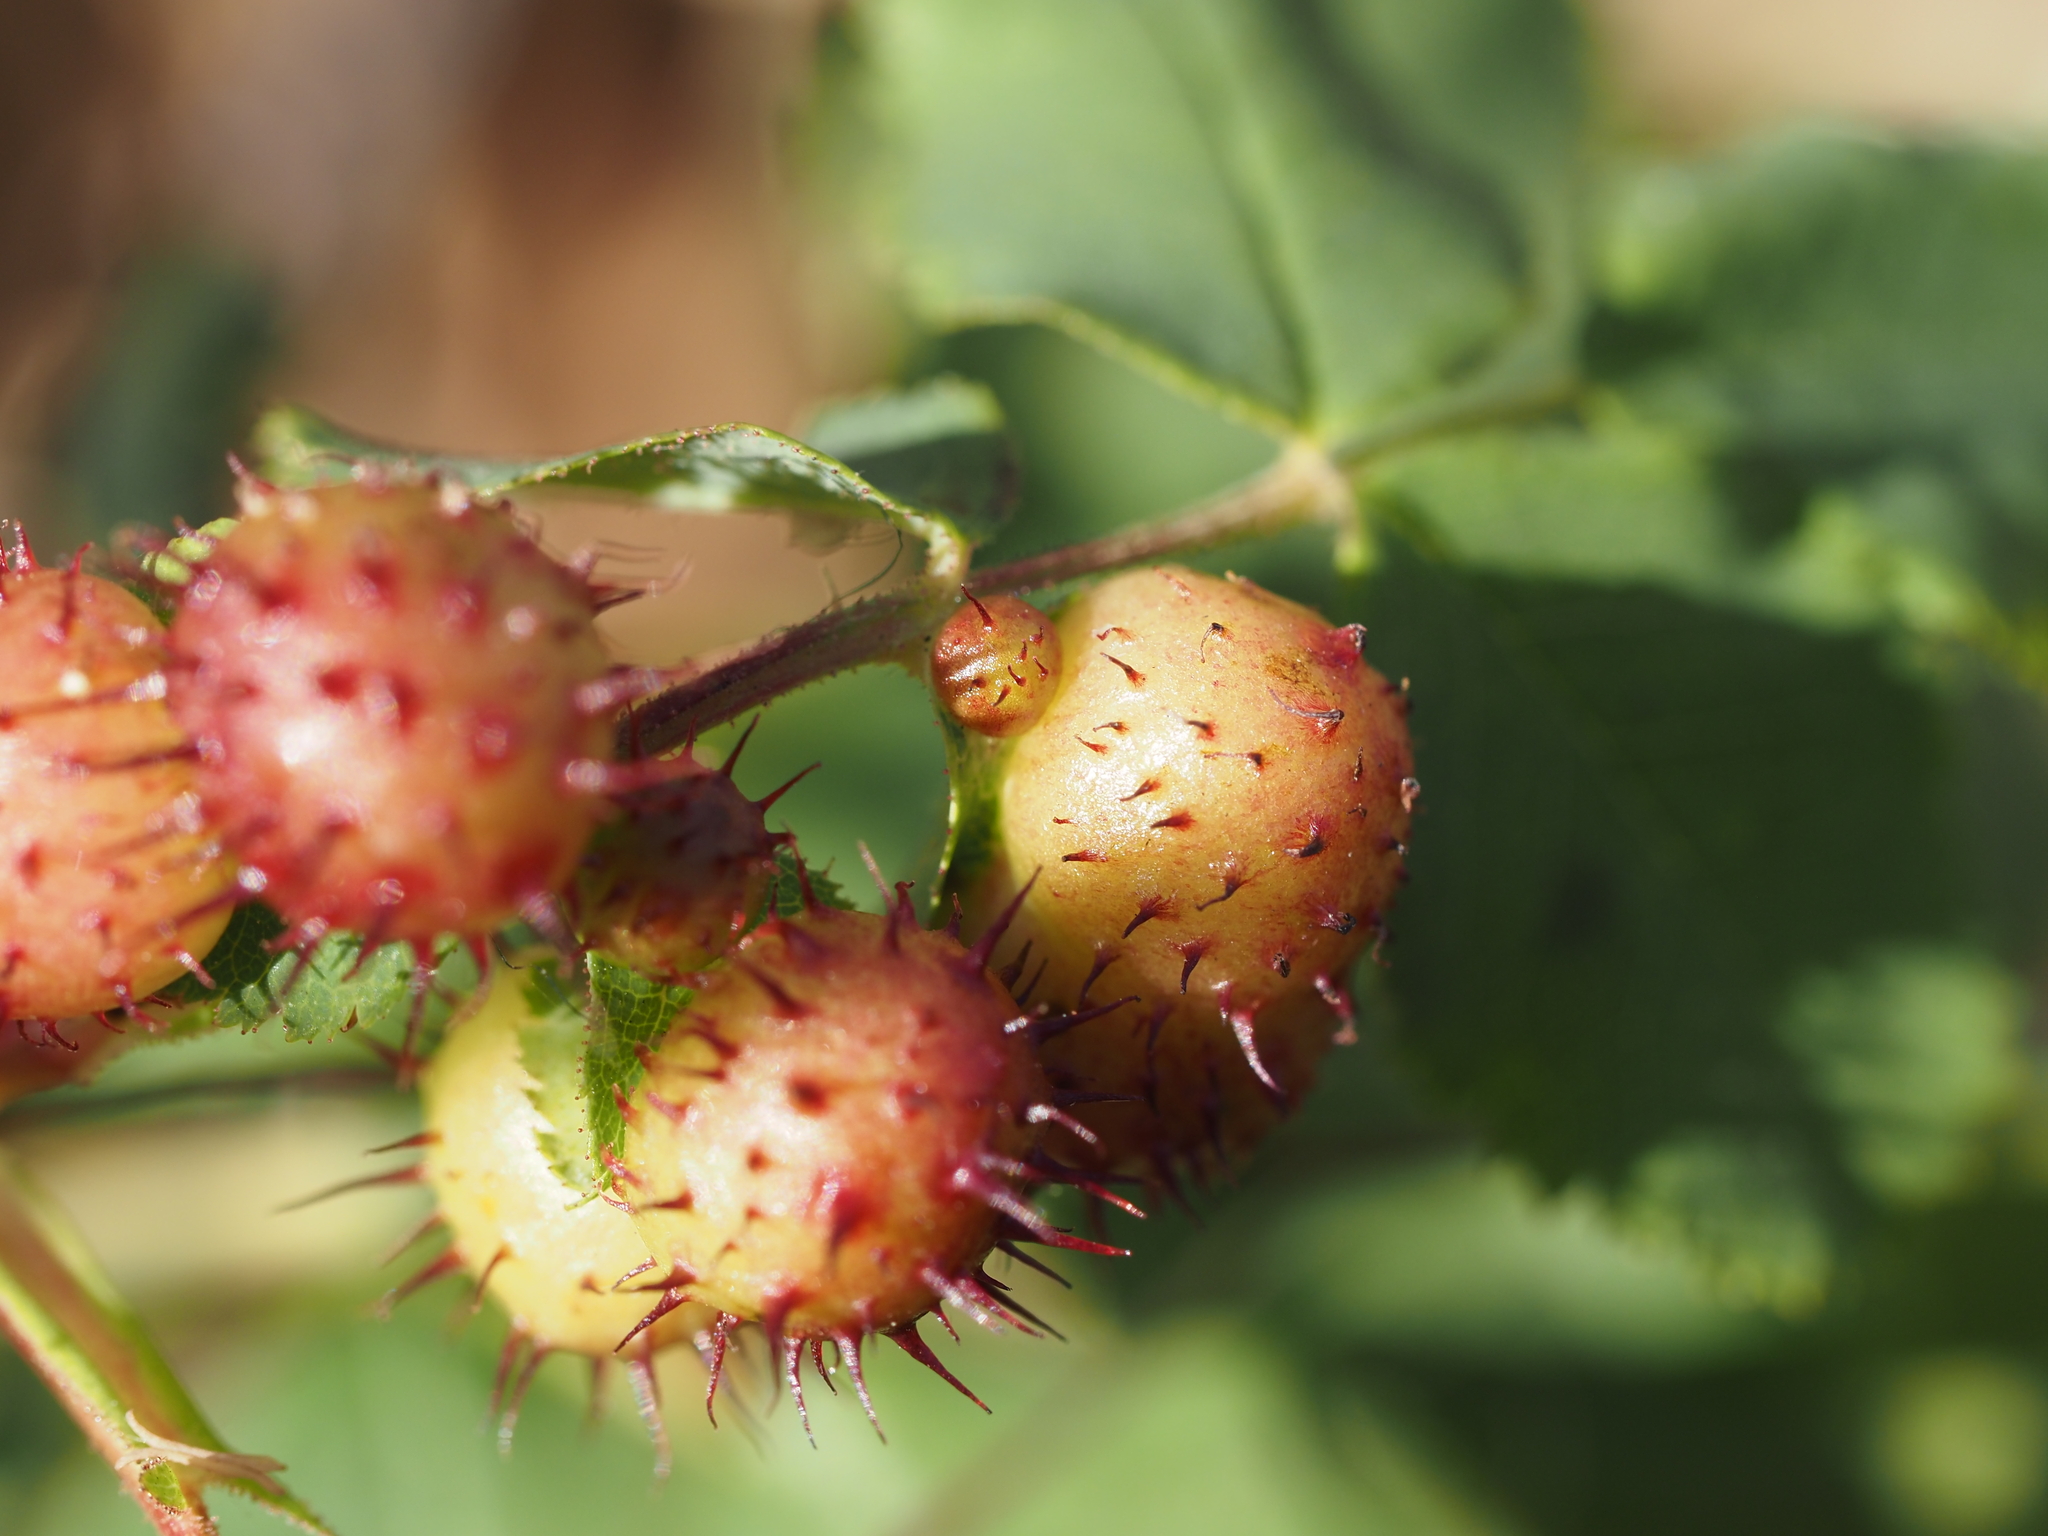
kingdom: Animalia
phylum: Arthropoda
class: Insecta
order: Hymenoptera
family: Cynipidae
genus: Diplolepis
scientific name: Diplolepis polita
